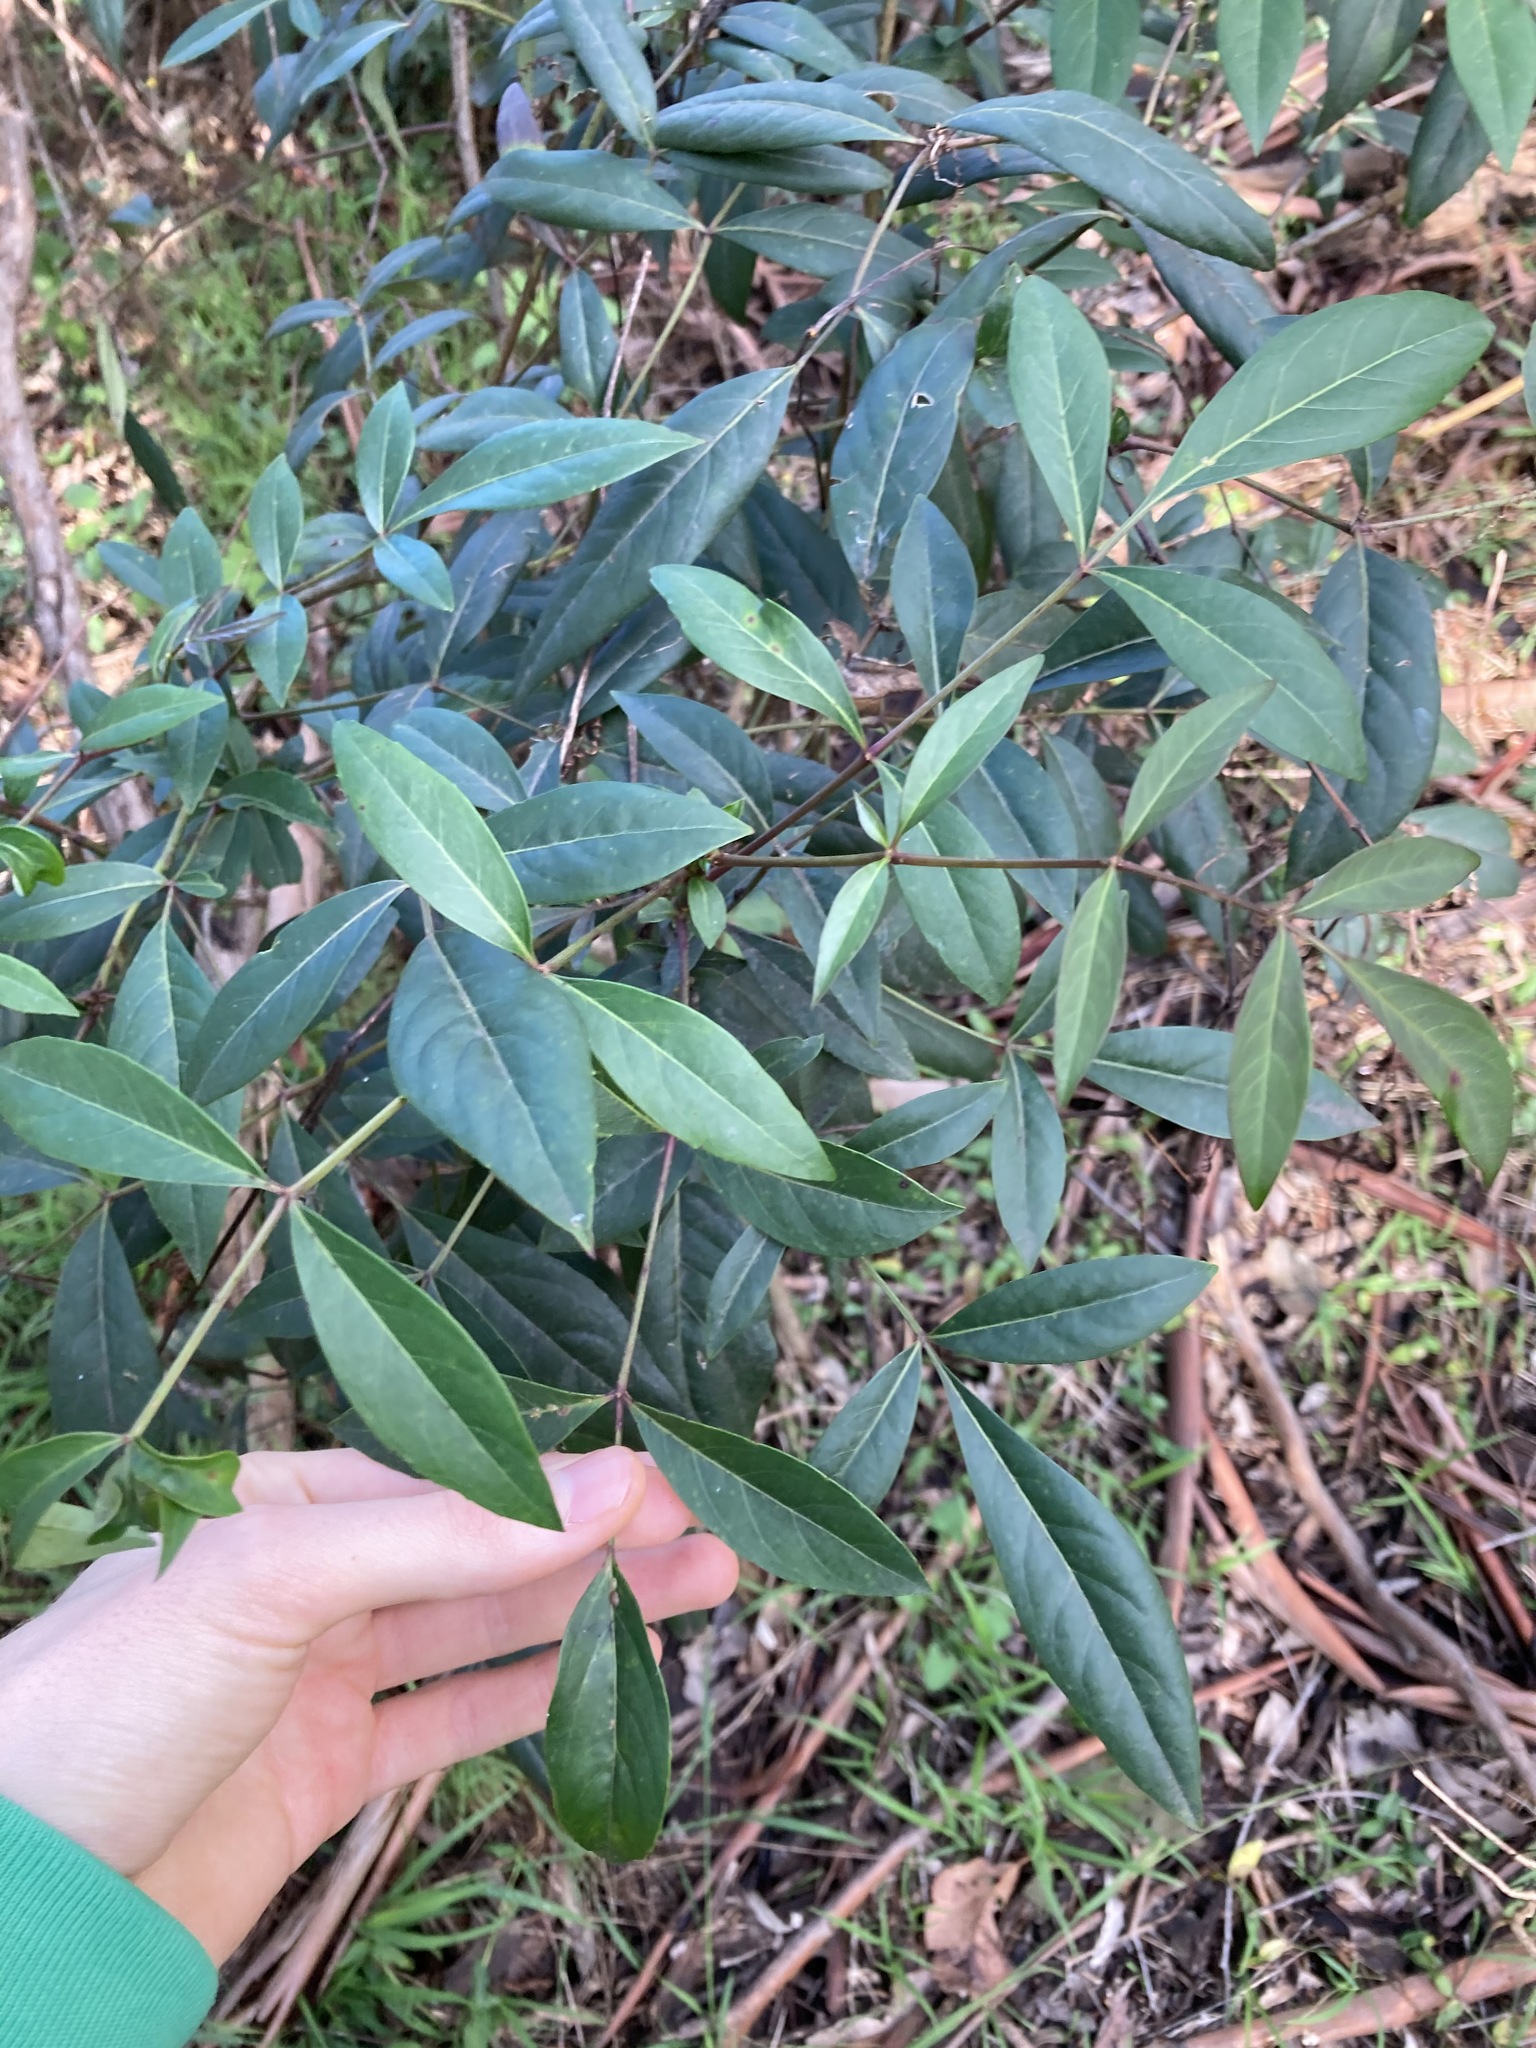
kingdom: Plantae
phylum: Tracheophyta
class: Magnoliopsida
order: Apiales
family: Araliaceae
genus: Polyscias
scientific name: Polyscias sambucifolia
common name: Elderberry-ash
